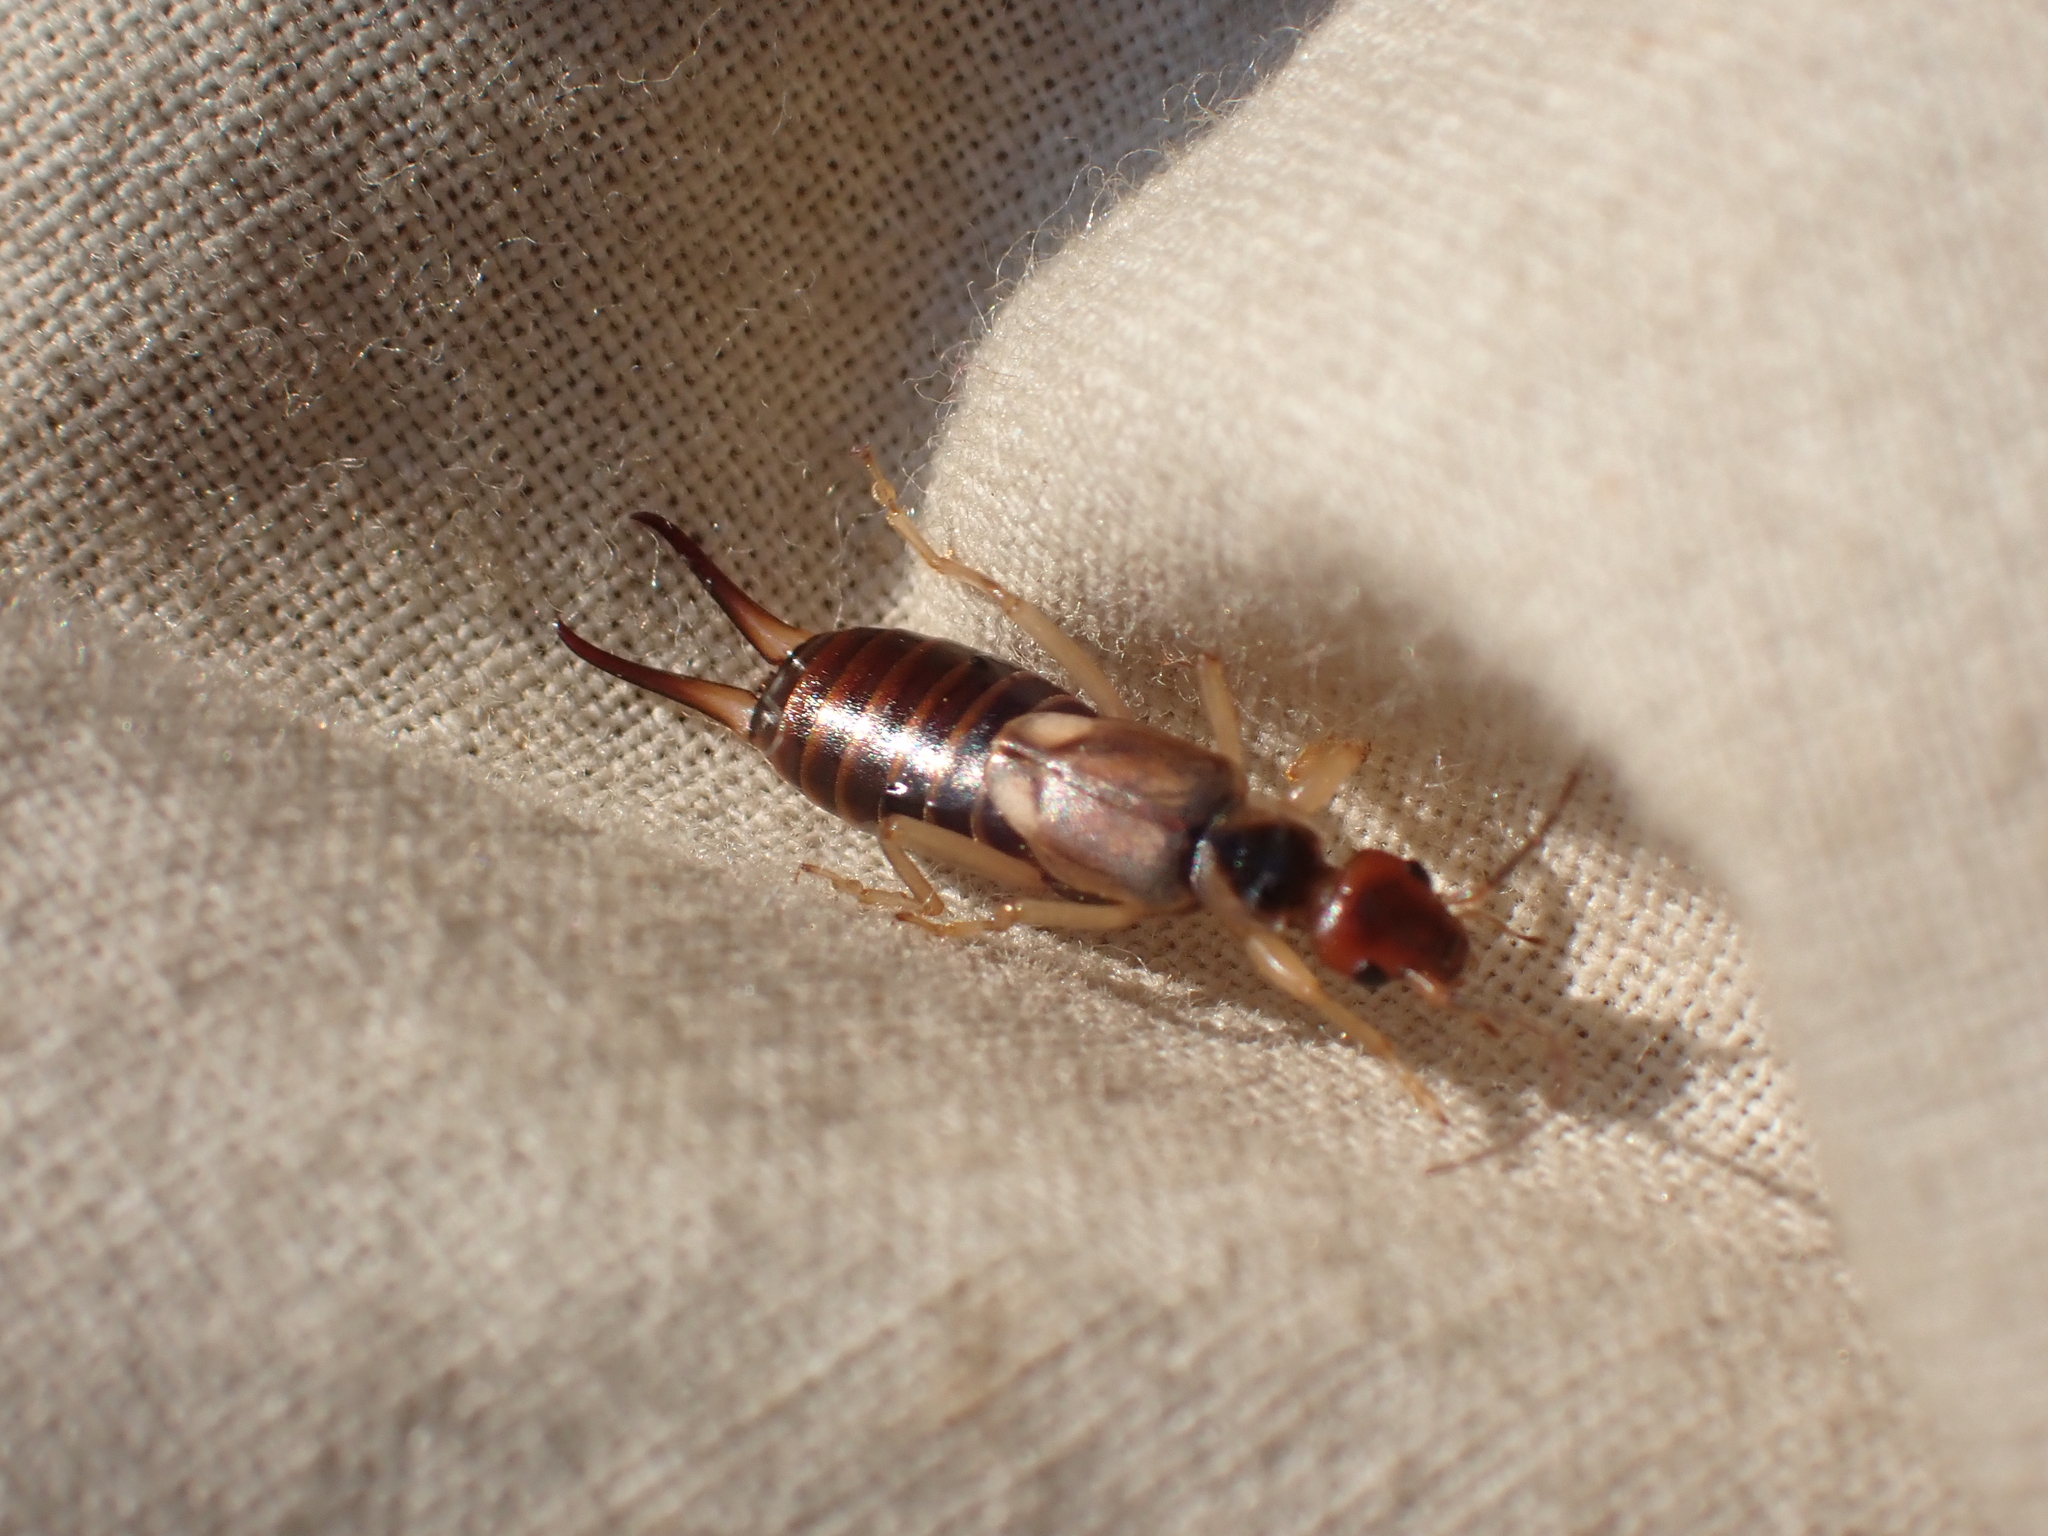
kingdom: Animalia
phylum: Arthropoda
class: Insecta
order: Dermaptera
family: Forficulidae
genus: Forficula
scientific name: Forficula
